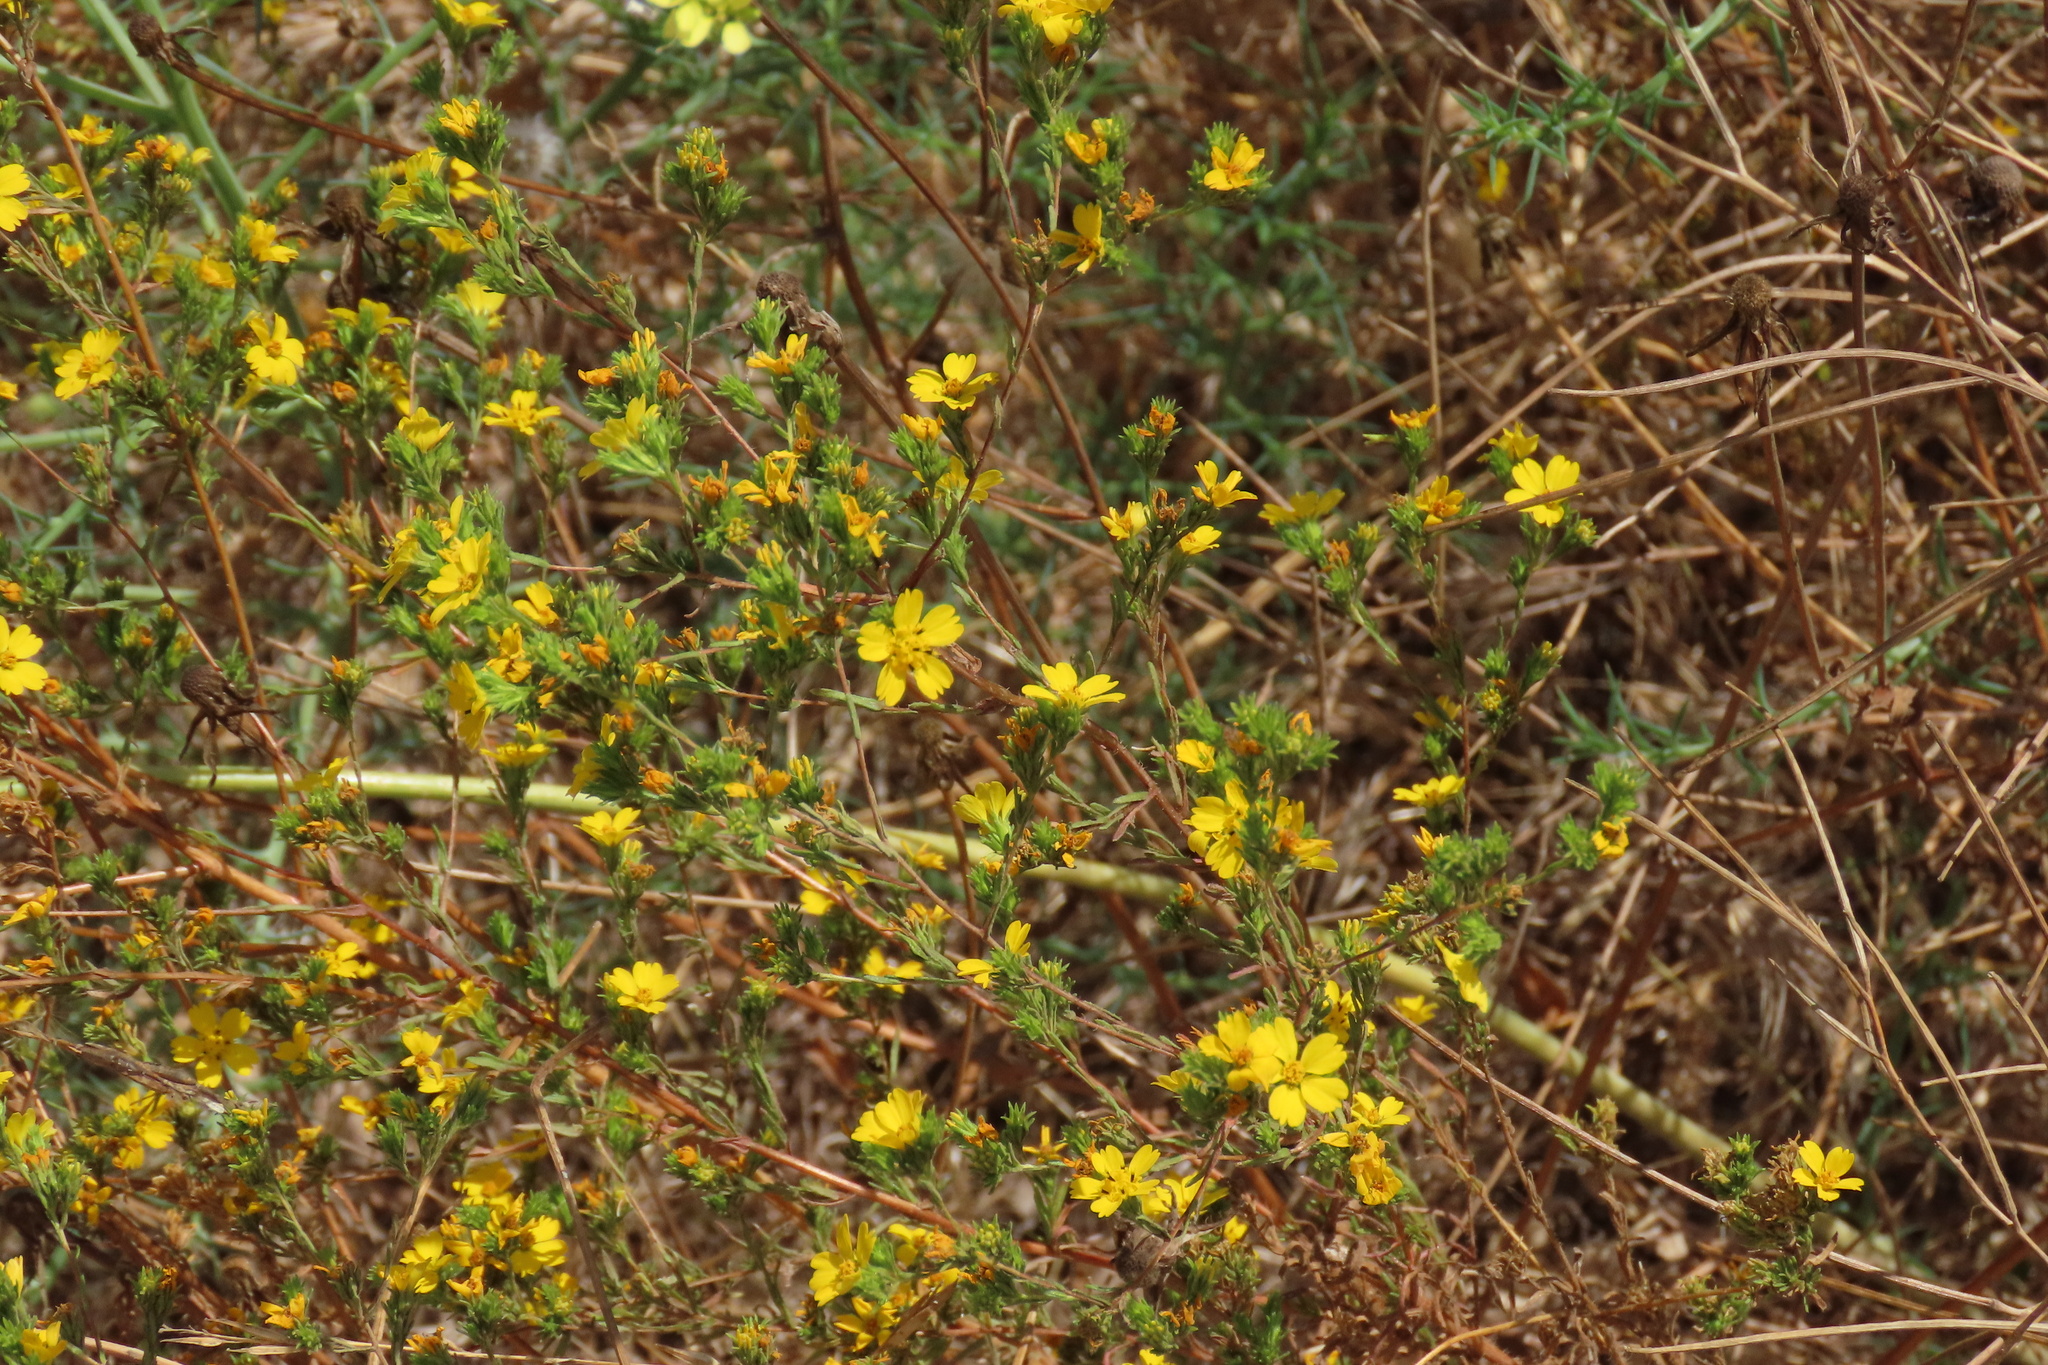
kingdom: Plantae
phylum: Tracheophyta
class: Magnoliopsida
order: Asterales
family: Asteraceae
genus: Deinandra
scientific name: Deinandra fasciculata
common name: Clustered tarweed
